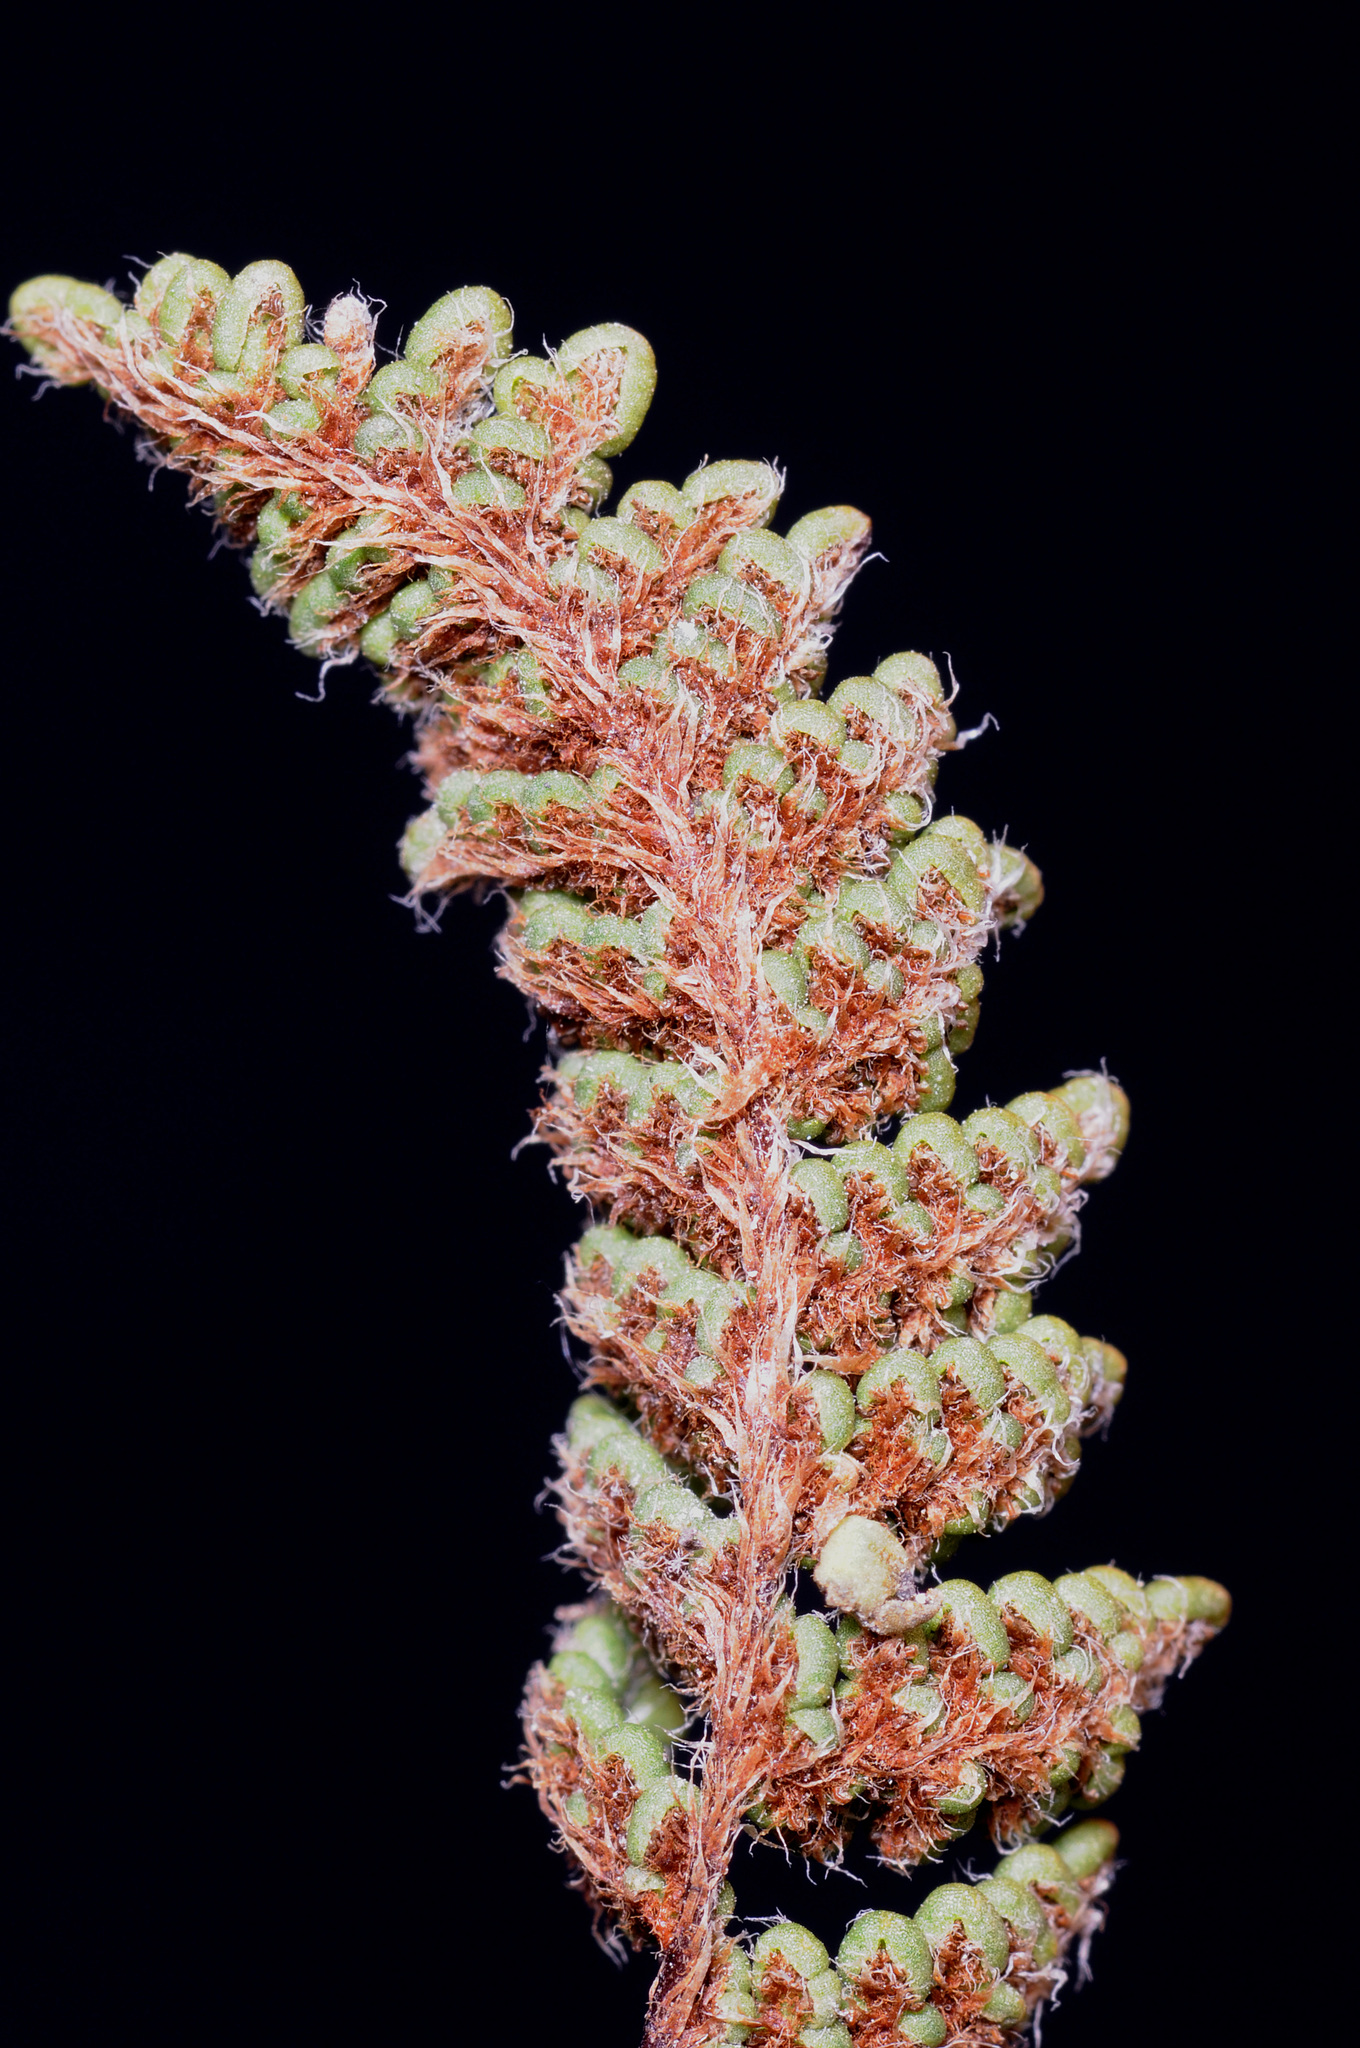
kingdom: Plantae
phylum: Tracheophyta
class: Polypodiopsida
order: Polypodiales
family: Pteridaceae
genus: Myriopteris
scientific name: Myriopteris intertexta
